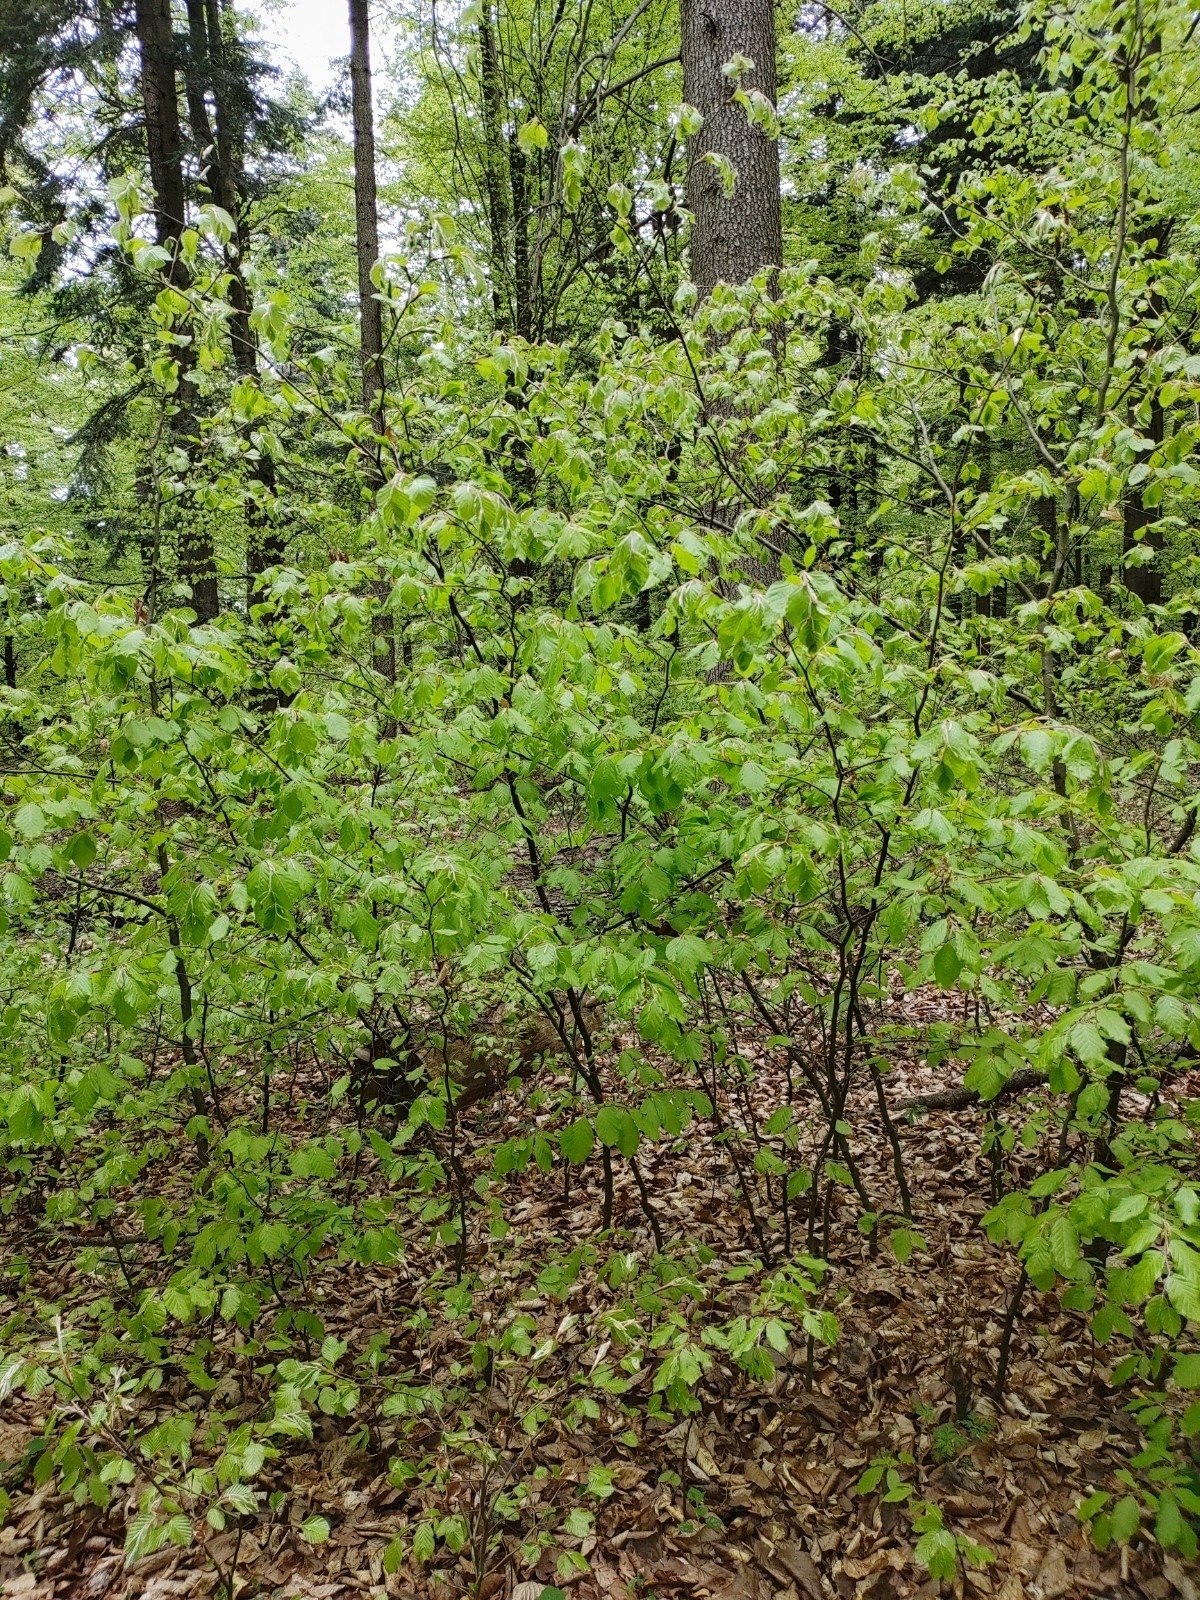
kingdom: Plantae
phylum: Tracheophyta
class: Magnoliopsida
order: Fagales
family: Fagaceae
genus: Fagus
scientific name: Fagus sylvatica
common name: Beech
